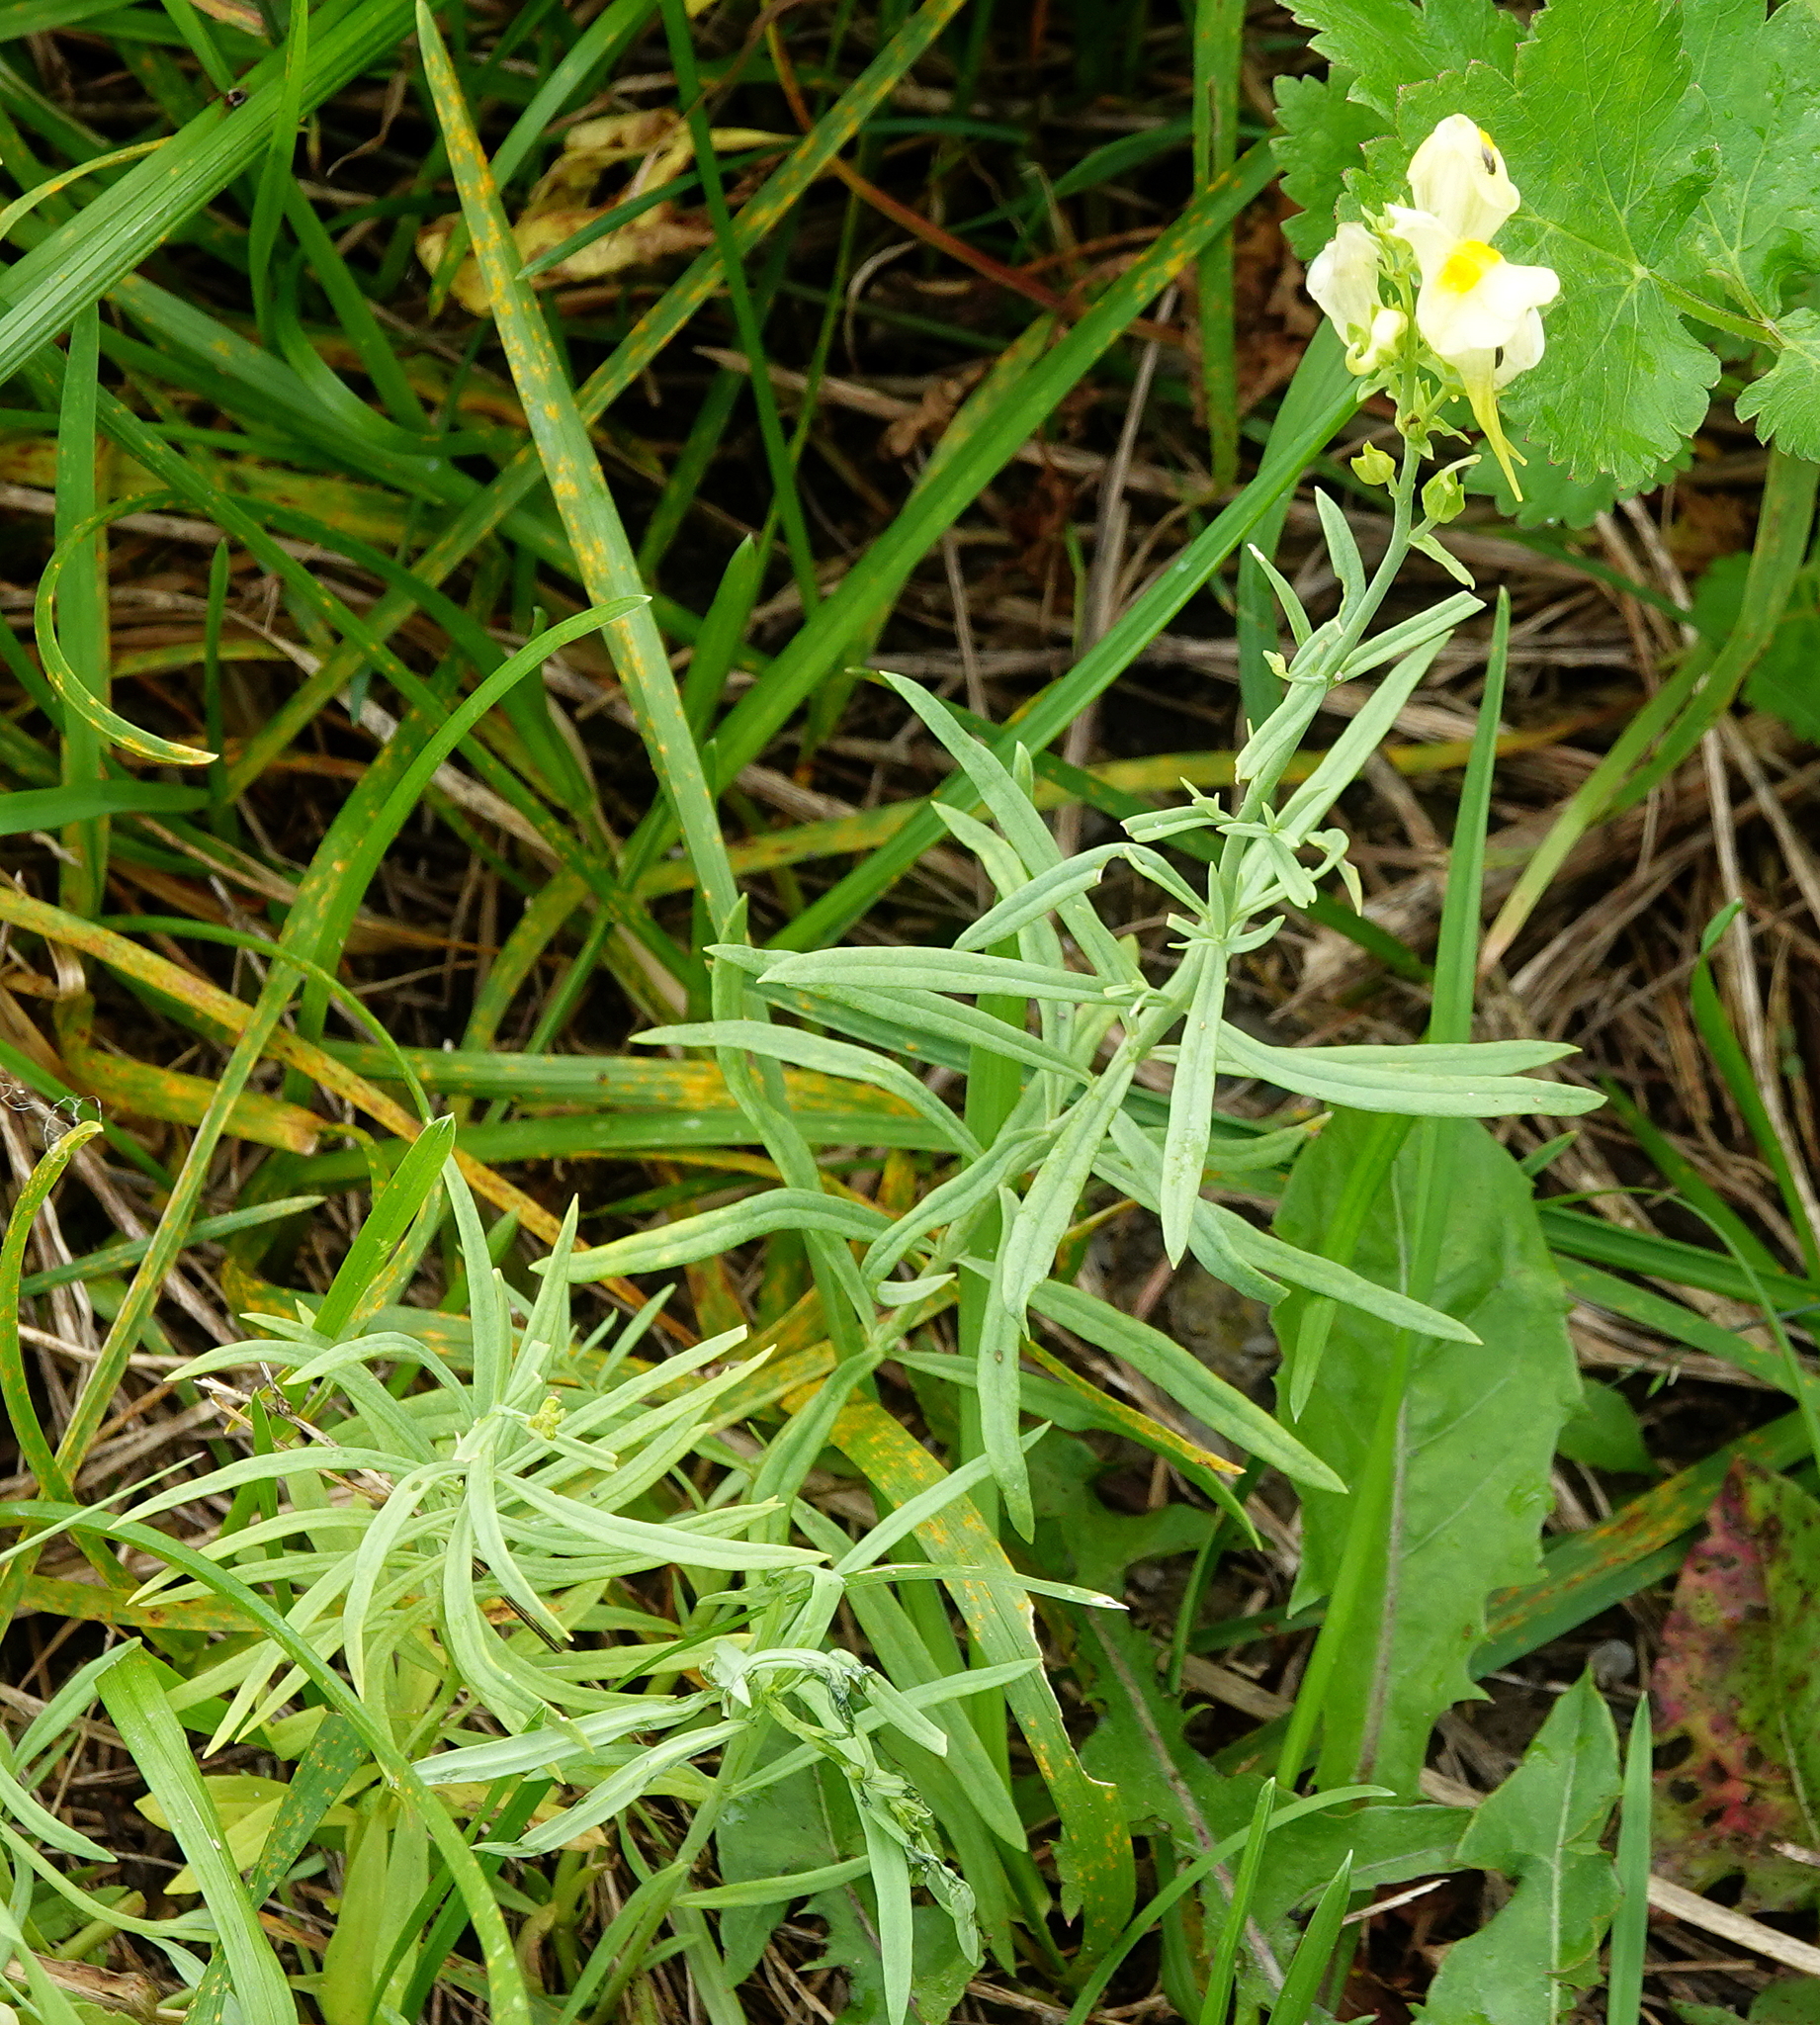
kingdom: Plantae
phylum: Tracheophyta
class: Magnoliopsida
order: Lamiales
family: Plantaginaceae
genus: Linaria
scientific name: Linaria vulgaris
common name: Butter and eggs
